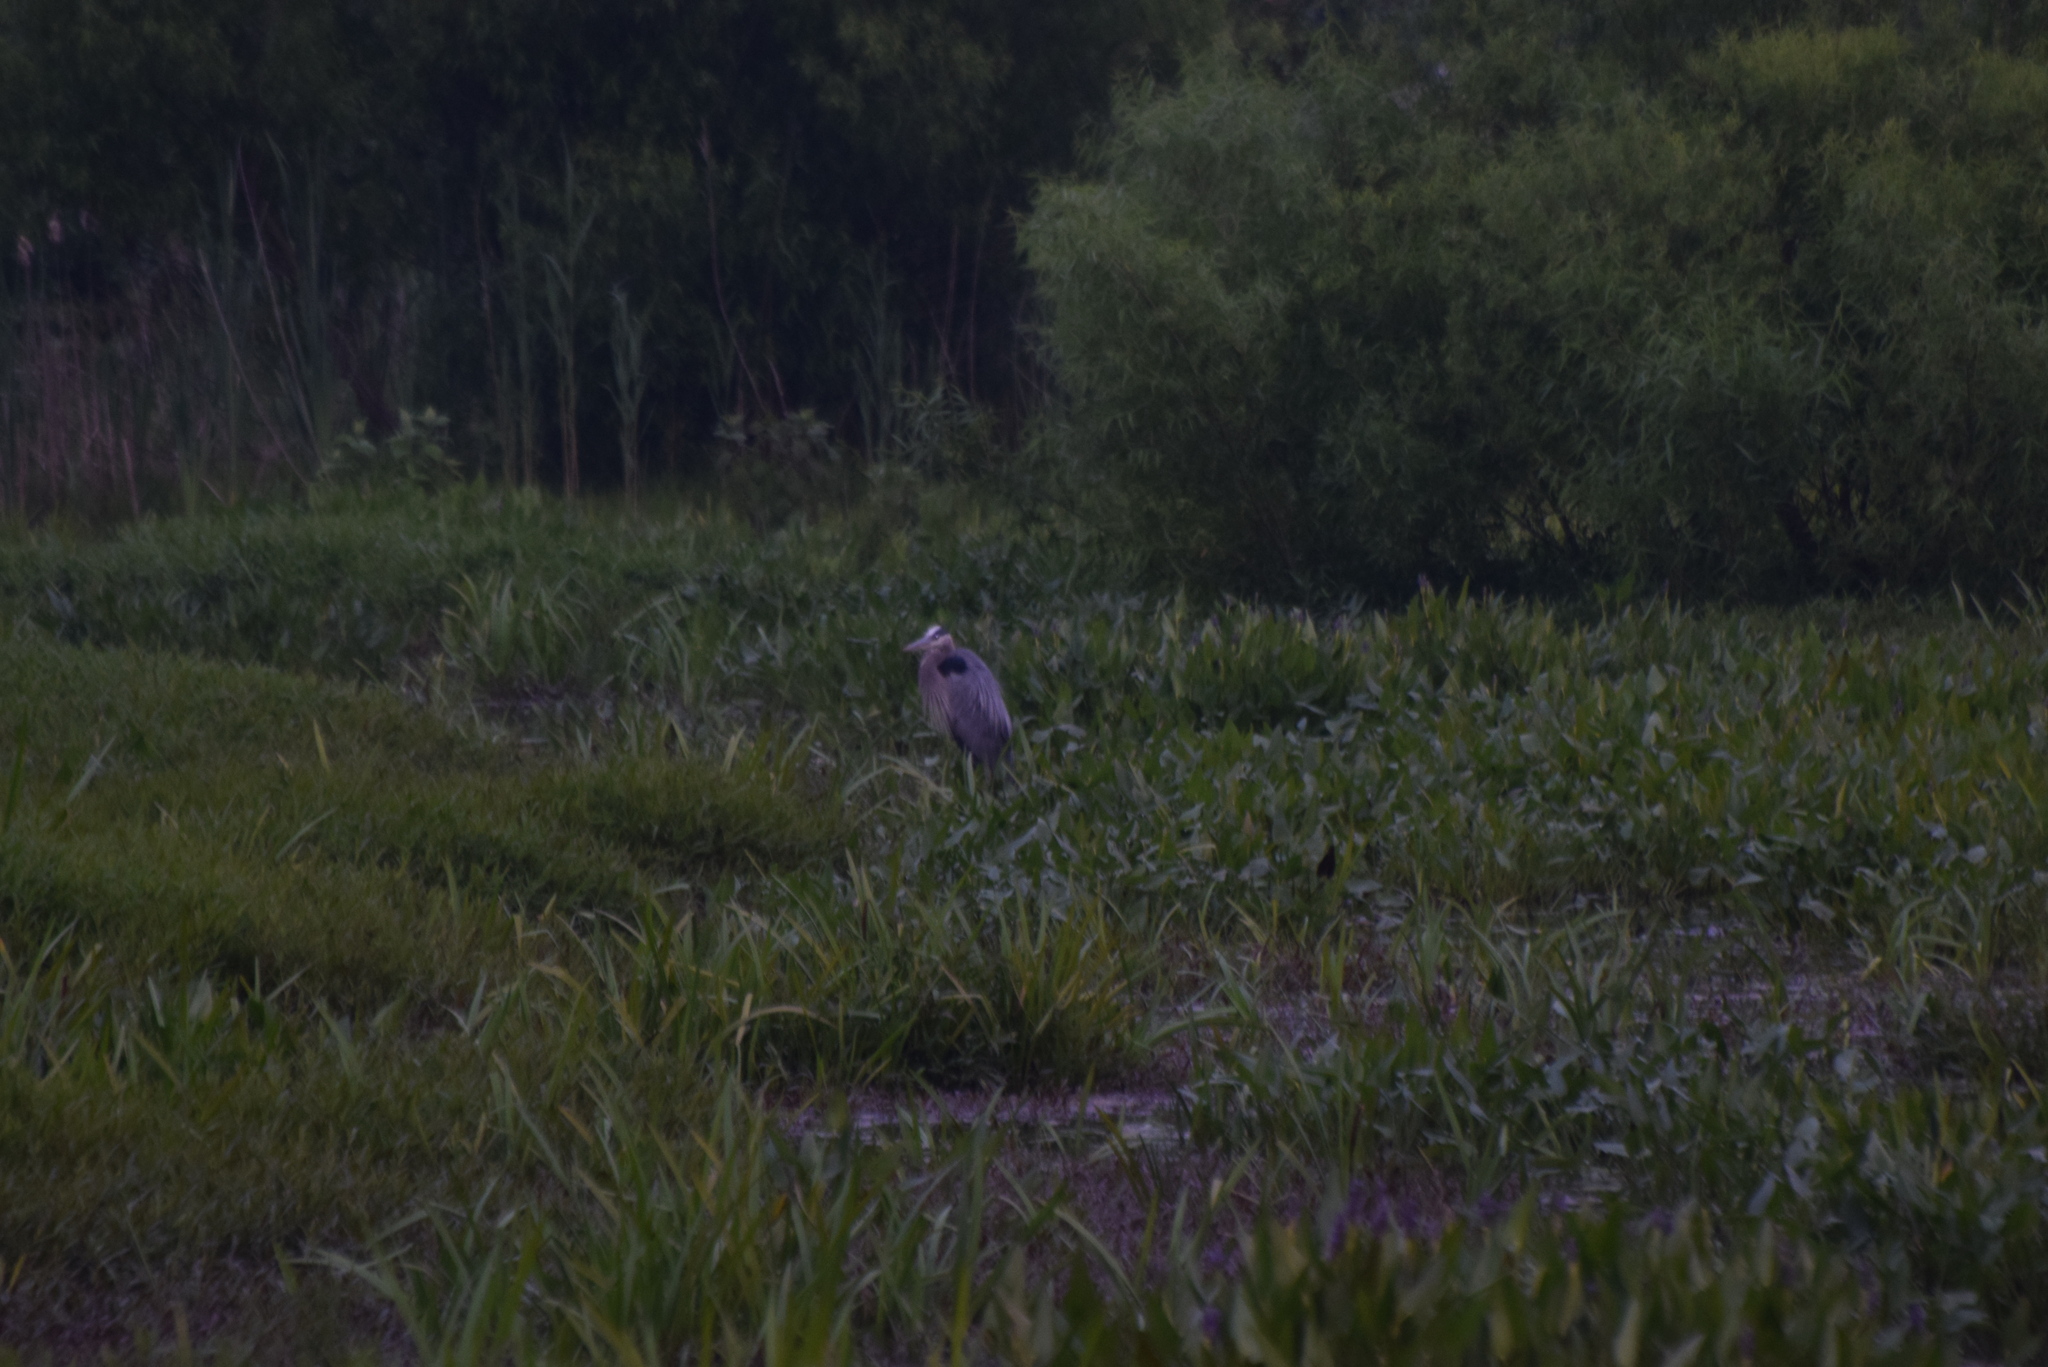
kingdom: Animalia
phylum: Chordata
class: Aves
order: Pelecaniformes
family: Ardeidae
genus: Ardea
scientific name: Ardea herodias
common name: Great blue heron
